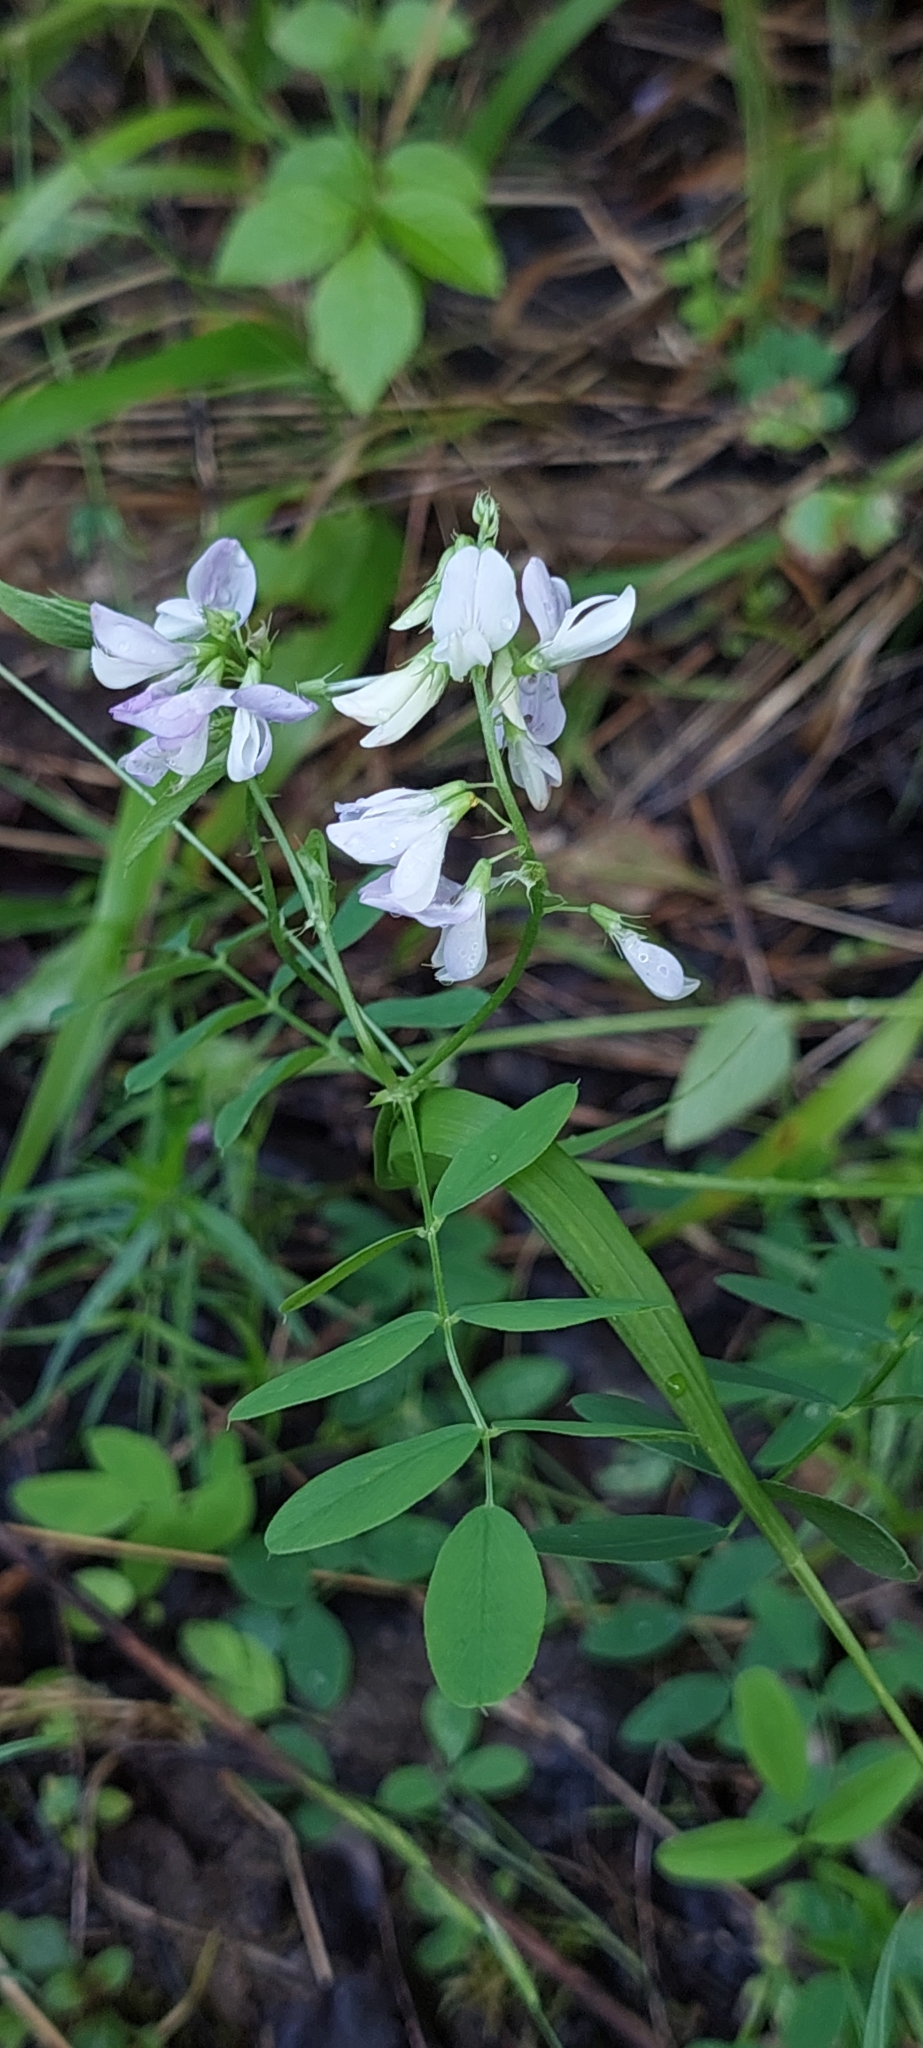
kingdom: Plantae
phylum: Tracheophyta
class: Magnoliopsida
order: Fabales
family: Fabaceae
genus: Galega
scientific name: Galega officinalis
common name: Goat's-rue
